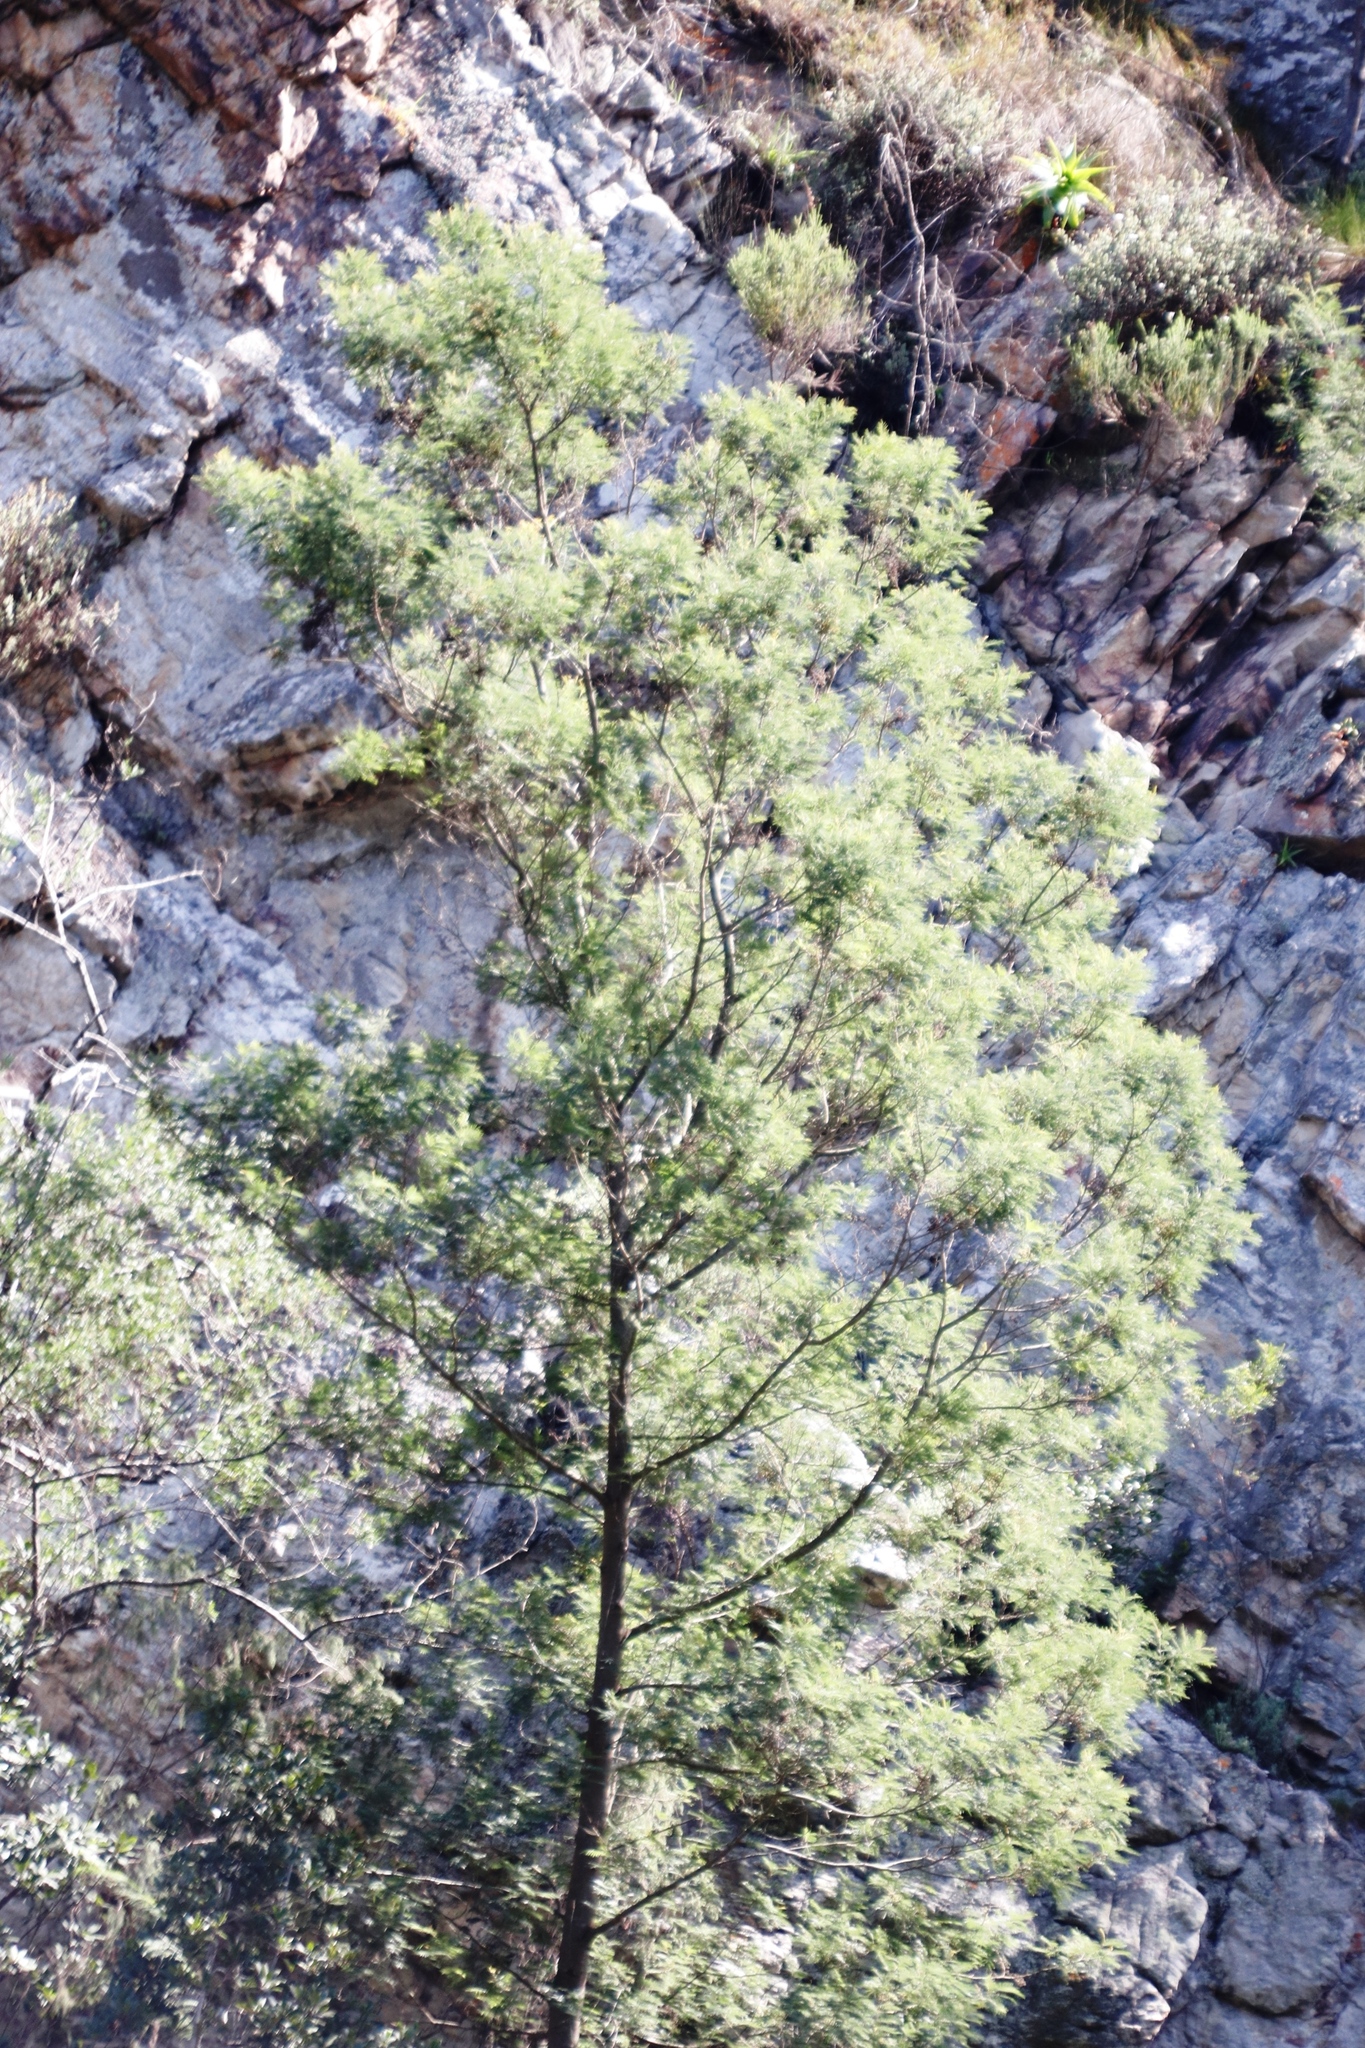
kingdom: Plantae
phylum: Tracheophyta
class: Magnoliopsida
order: Fabales
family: Fabaceae
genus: Acacia
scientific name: Acacia mearnsii
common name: Black wattle
